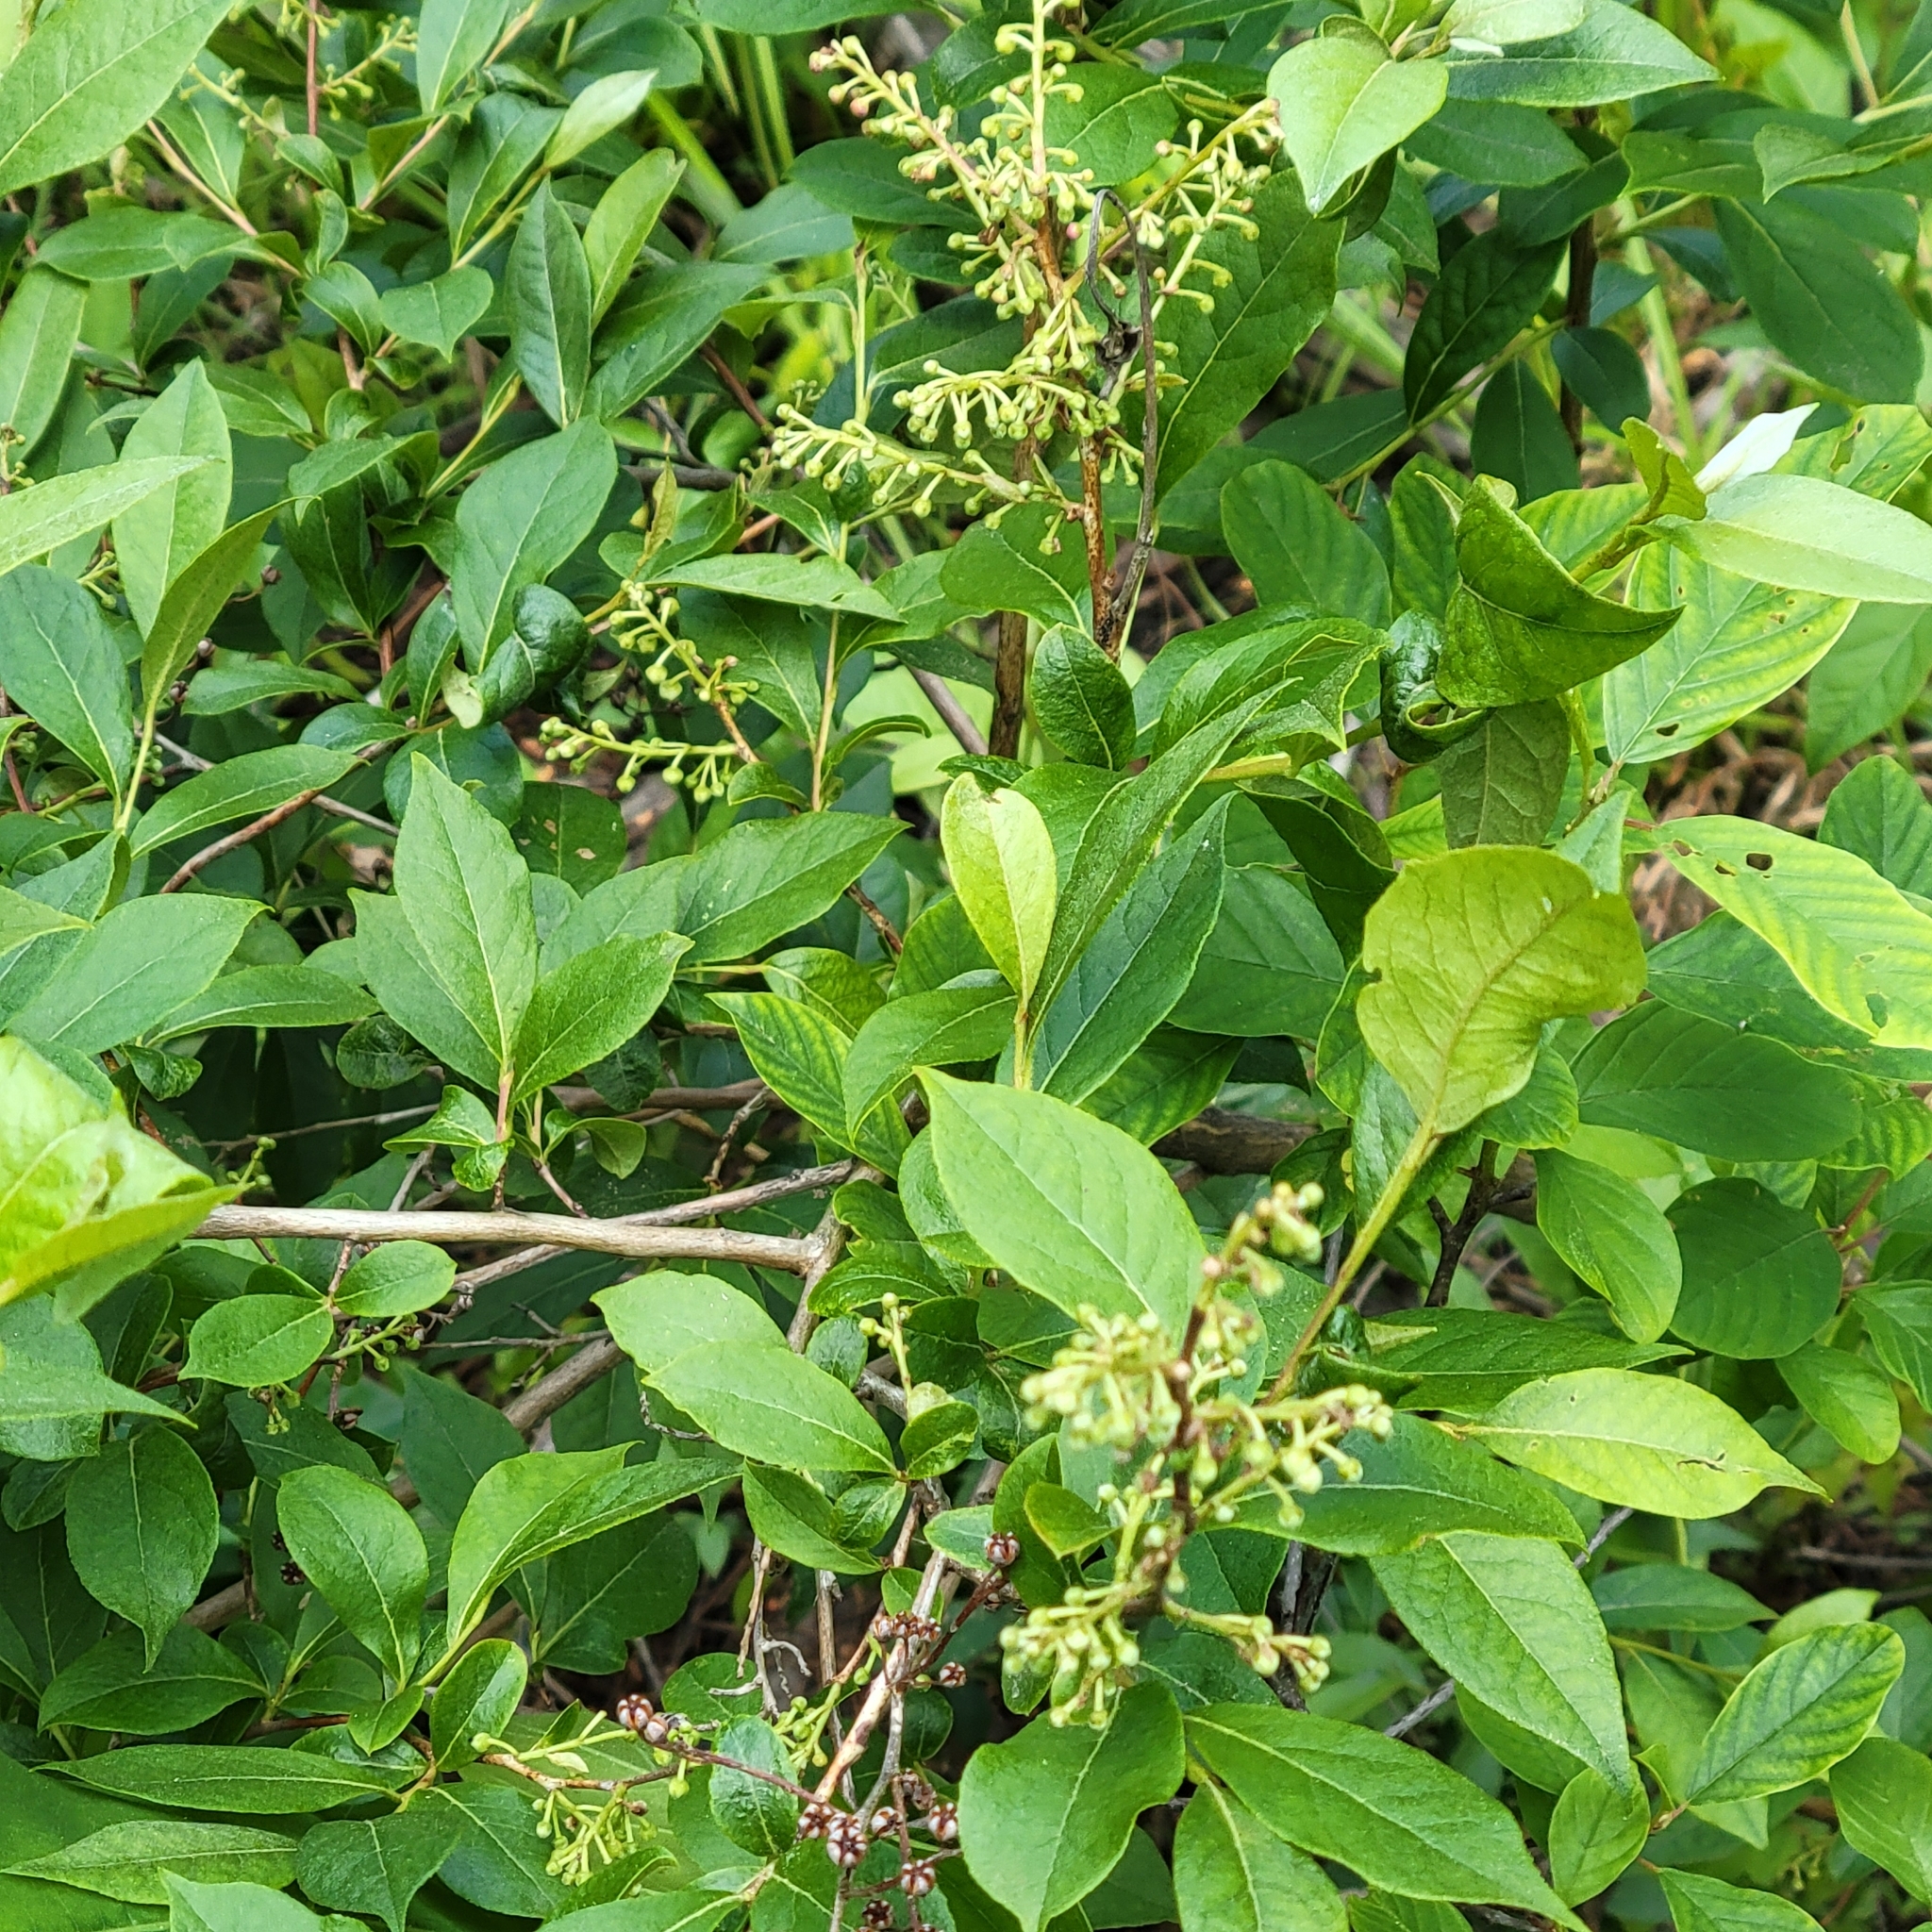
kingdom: Plantae
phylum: Tracheophyta
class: Magnoliopsida
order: Ericales
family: Ericaceae
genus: Lyonia
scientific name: Lyonia ligustrina
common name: Maleberry
